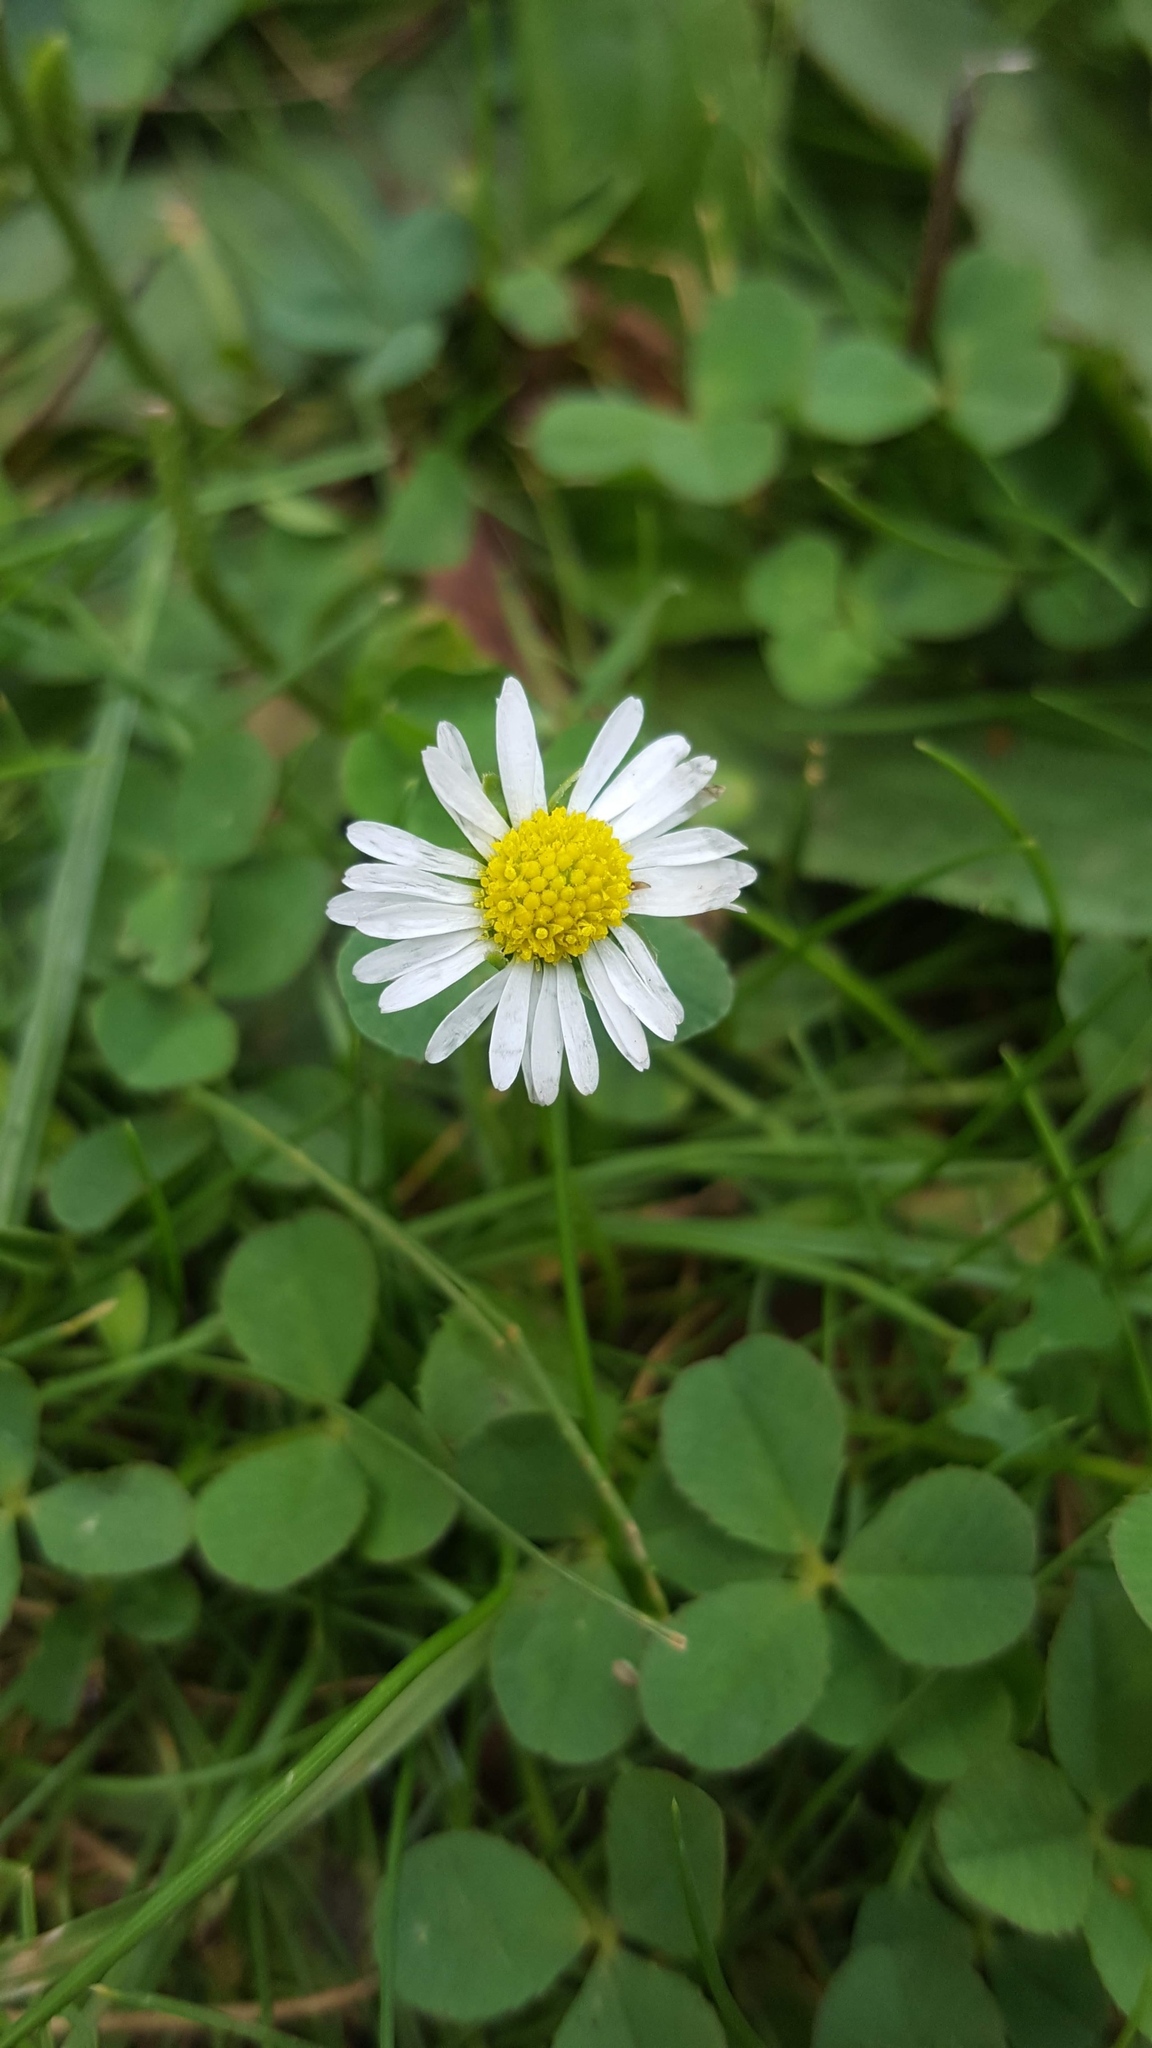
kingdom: Plantae
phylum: Tracheophyta
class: Magnoliopsida
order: Asterales
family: Asteraceae
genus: Bellis
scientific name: Bellis perennis
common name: Lawndaisy
